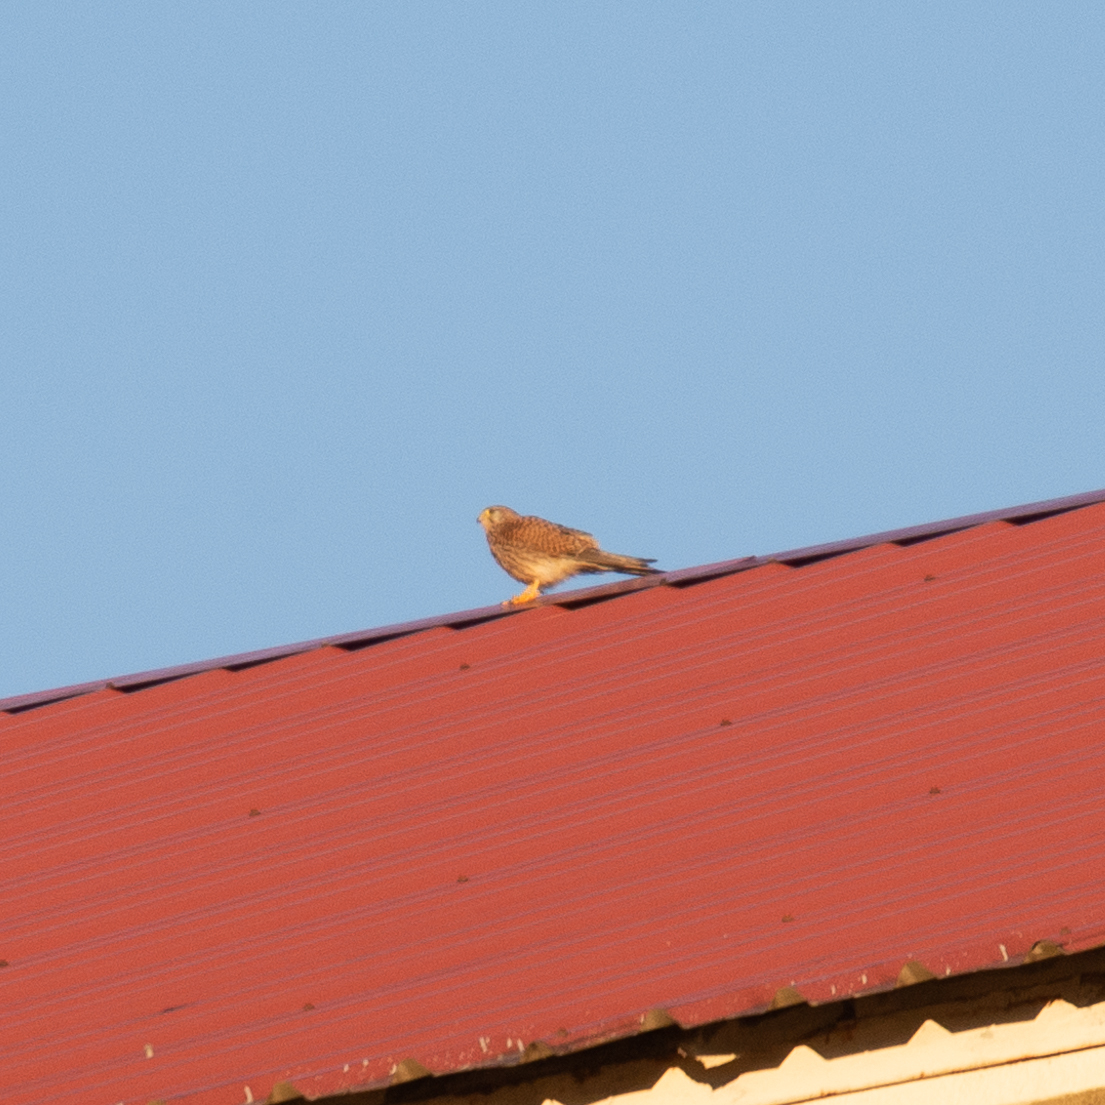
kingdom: Animalia
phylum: Chordata
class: Aves
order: Falconiformes
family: Falconidae
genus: Falco
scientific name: Falco tinnunculus
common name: Common kestrel
